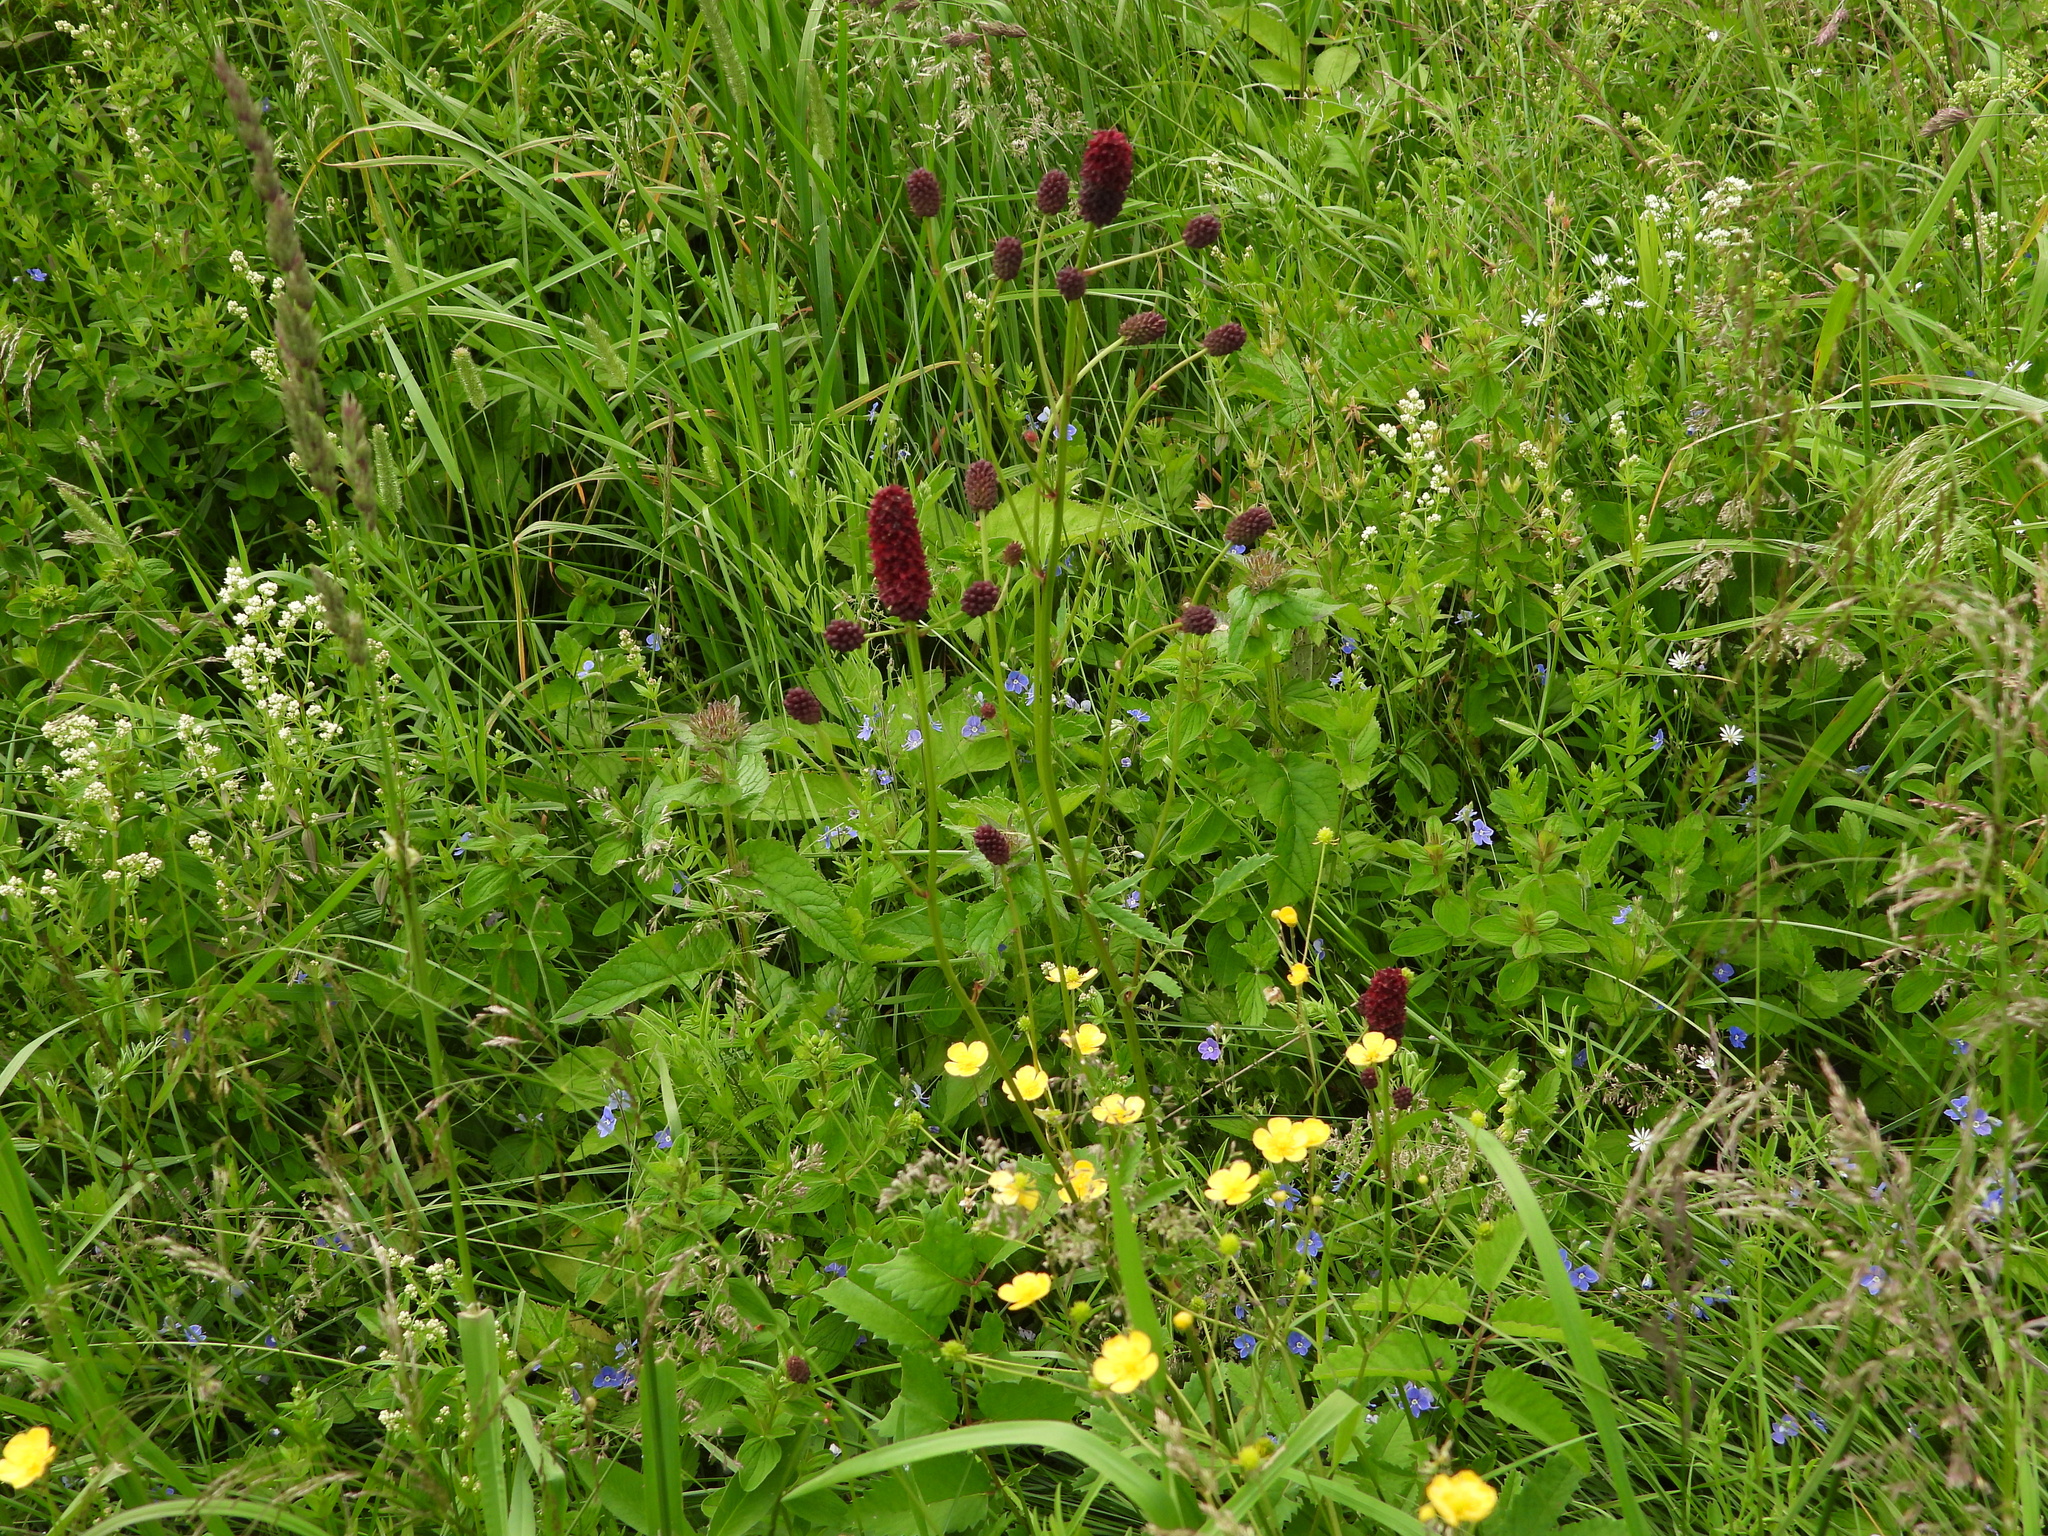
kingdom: Plantae
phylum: Tracheophyta
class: Magnoliopsida
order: Rosales
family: Rosaceae
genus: Sanguisorba
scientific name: Sanguisorba officinalis
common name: Great burnet
